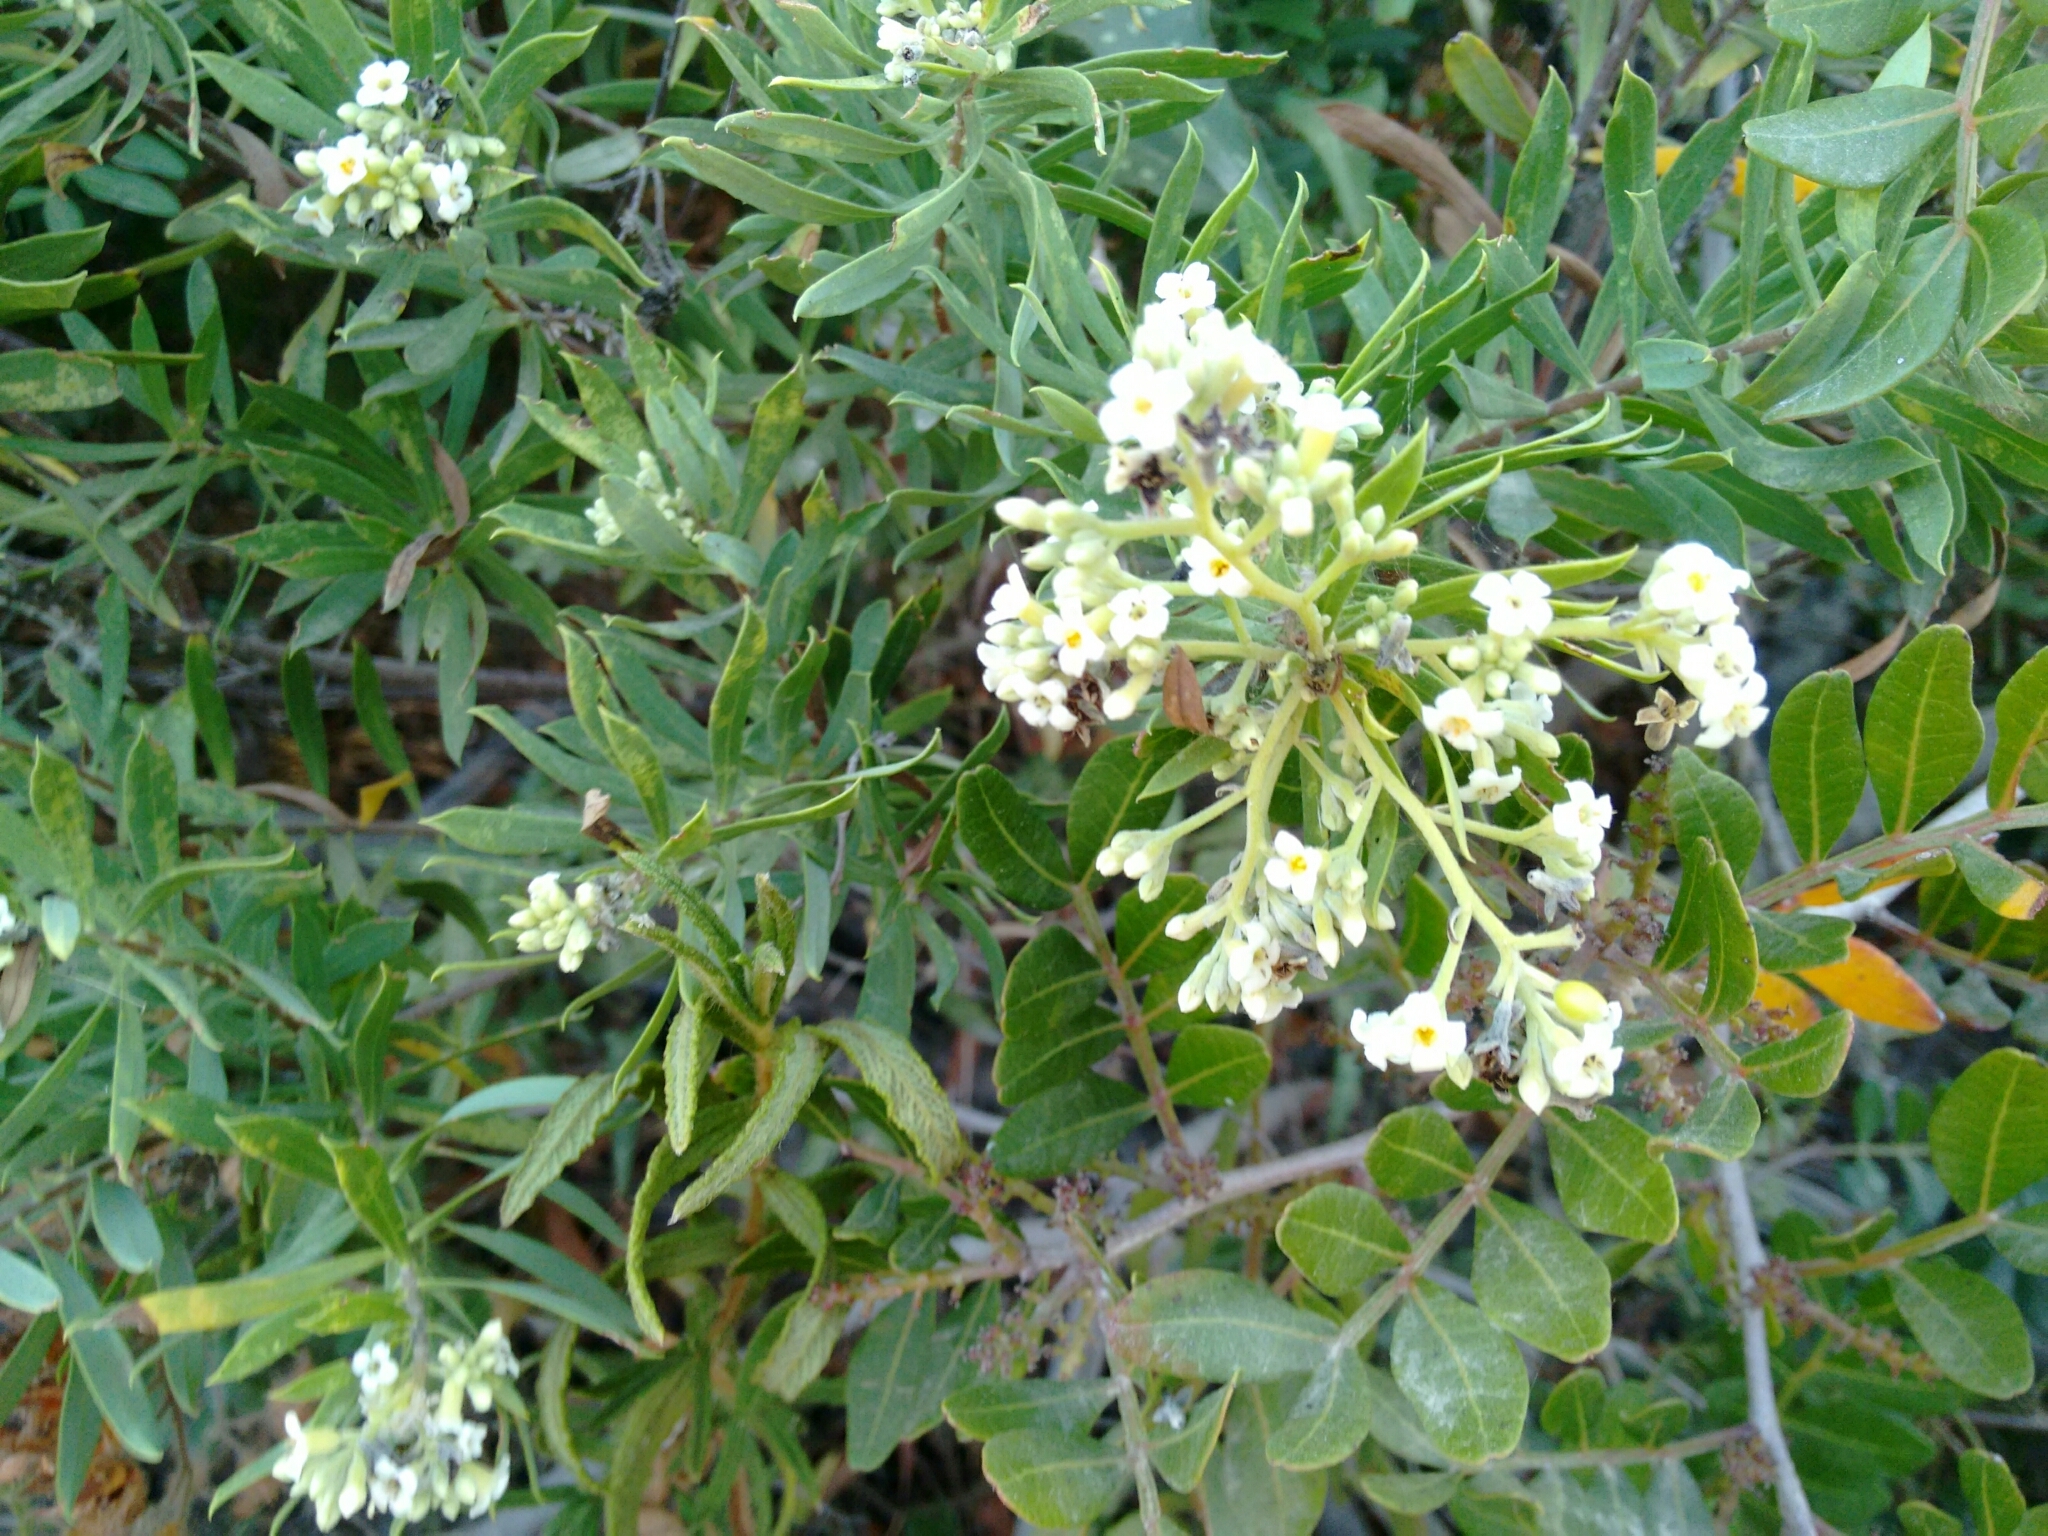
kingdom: Plantae
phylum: Tracheophyta
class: Magnoliopsida
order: Malvales
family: Thymelaeaceae
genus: Daphne
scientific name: Daphne gnidium
